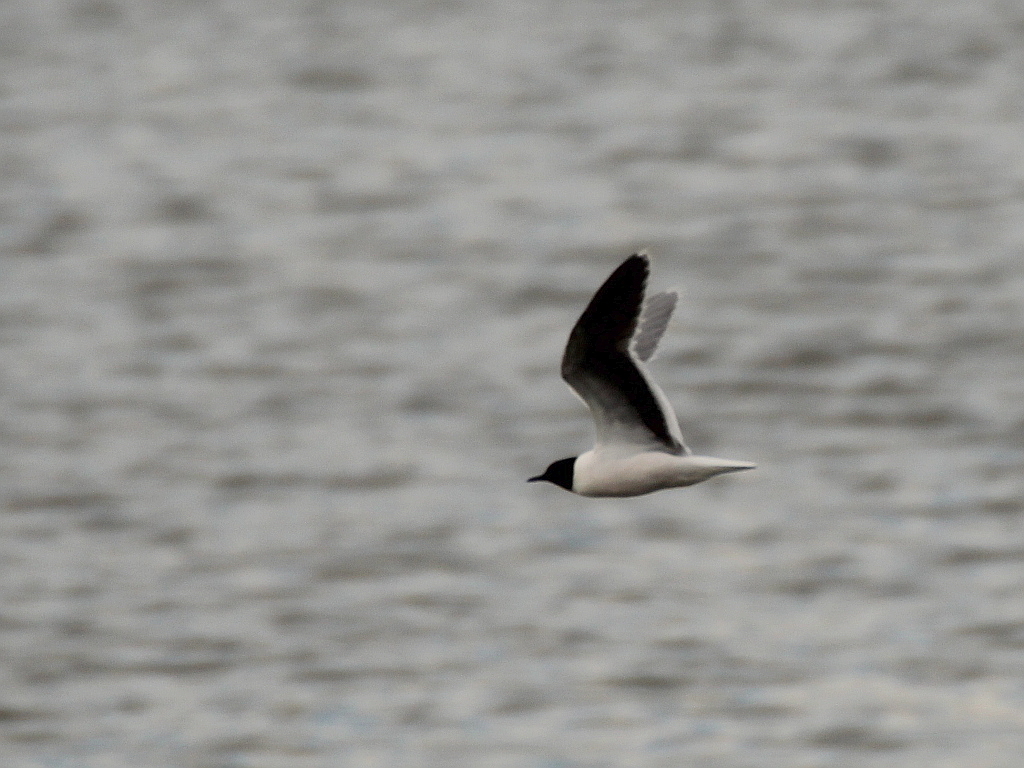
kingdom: Animalia
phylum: Chordata
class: Aves
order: Charadriiformes
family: Laridae
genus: Hydrocoloeus
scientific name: Hydrocoloeus minutus
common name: Little gull
